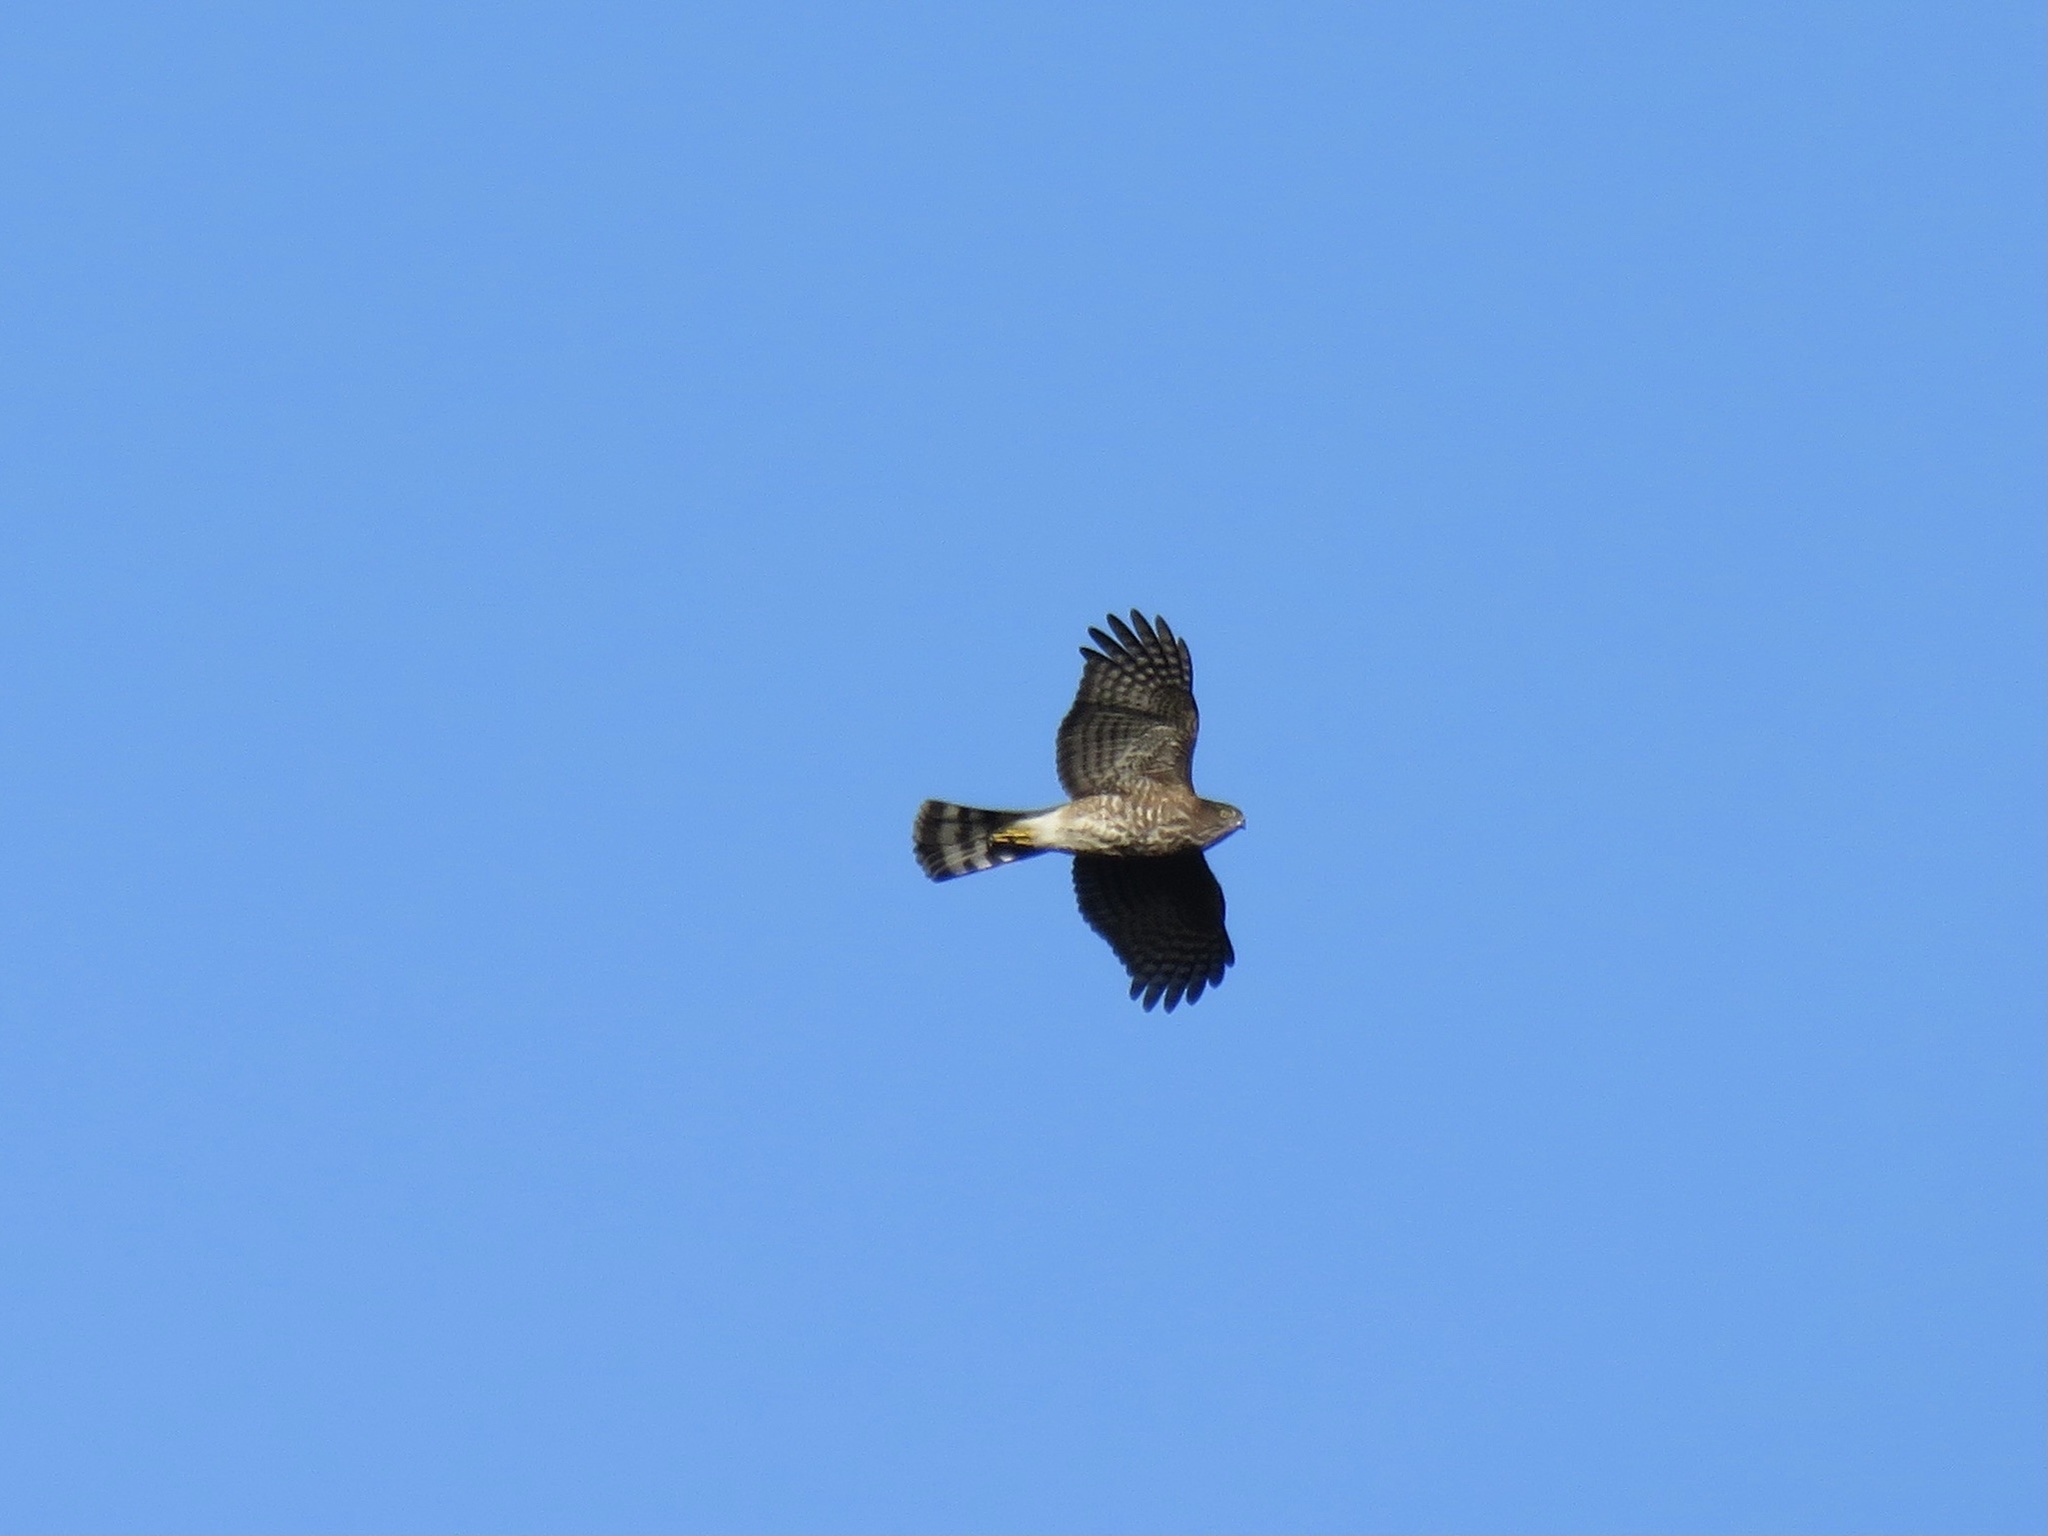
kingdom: Animalia
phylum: Chordata
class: Aves
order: Accipitriformes
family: Accipitridae
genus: Accipiter
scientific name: Accipiter striatus
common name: Sharp-shinned hawk
